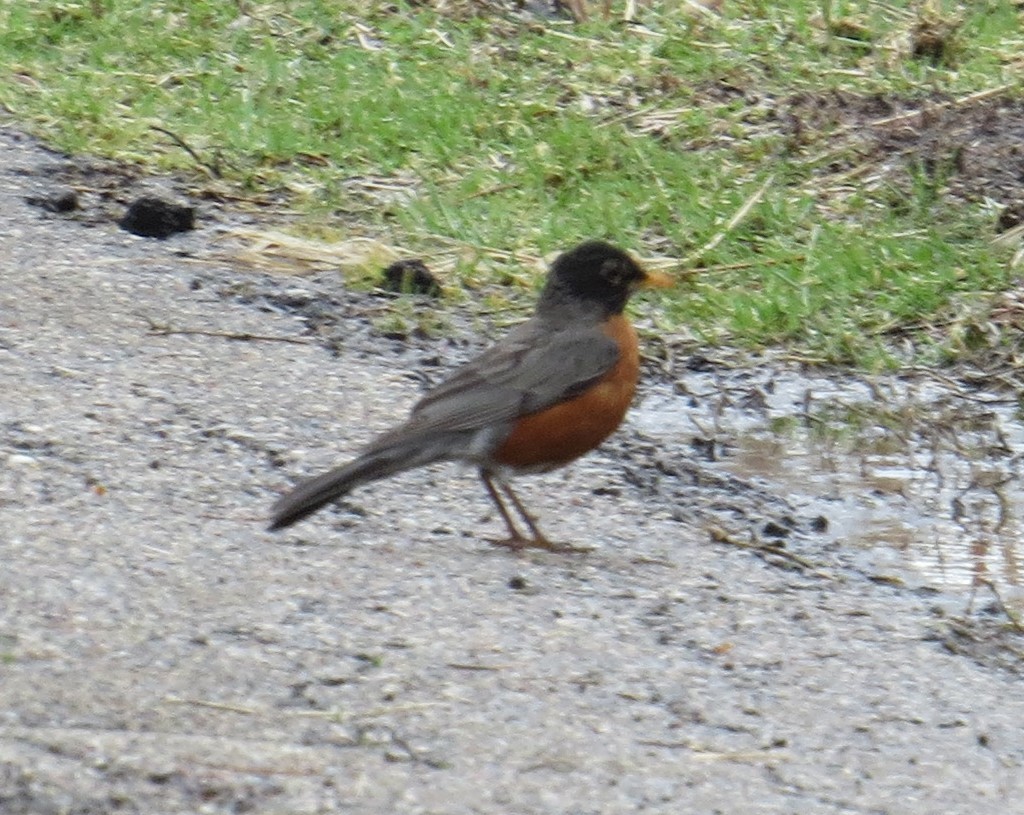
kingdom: Animalia
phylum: Chordata
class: Aves
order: Passeriformes
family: Turdidae
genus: Turdus
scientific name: Turdus migratorius
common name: American robin
